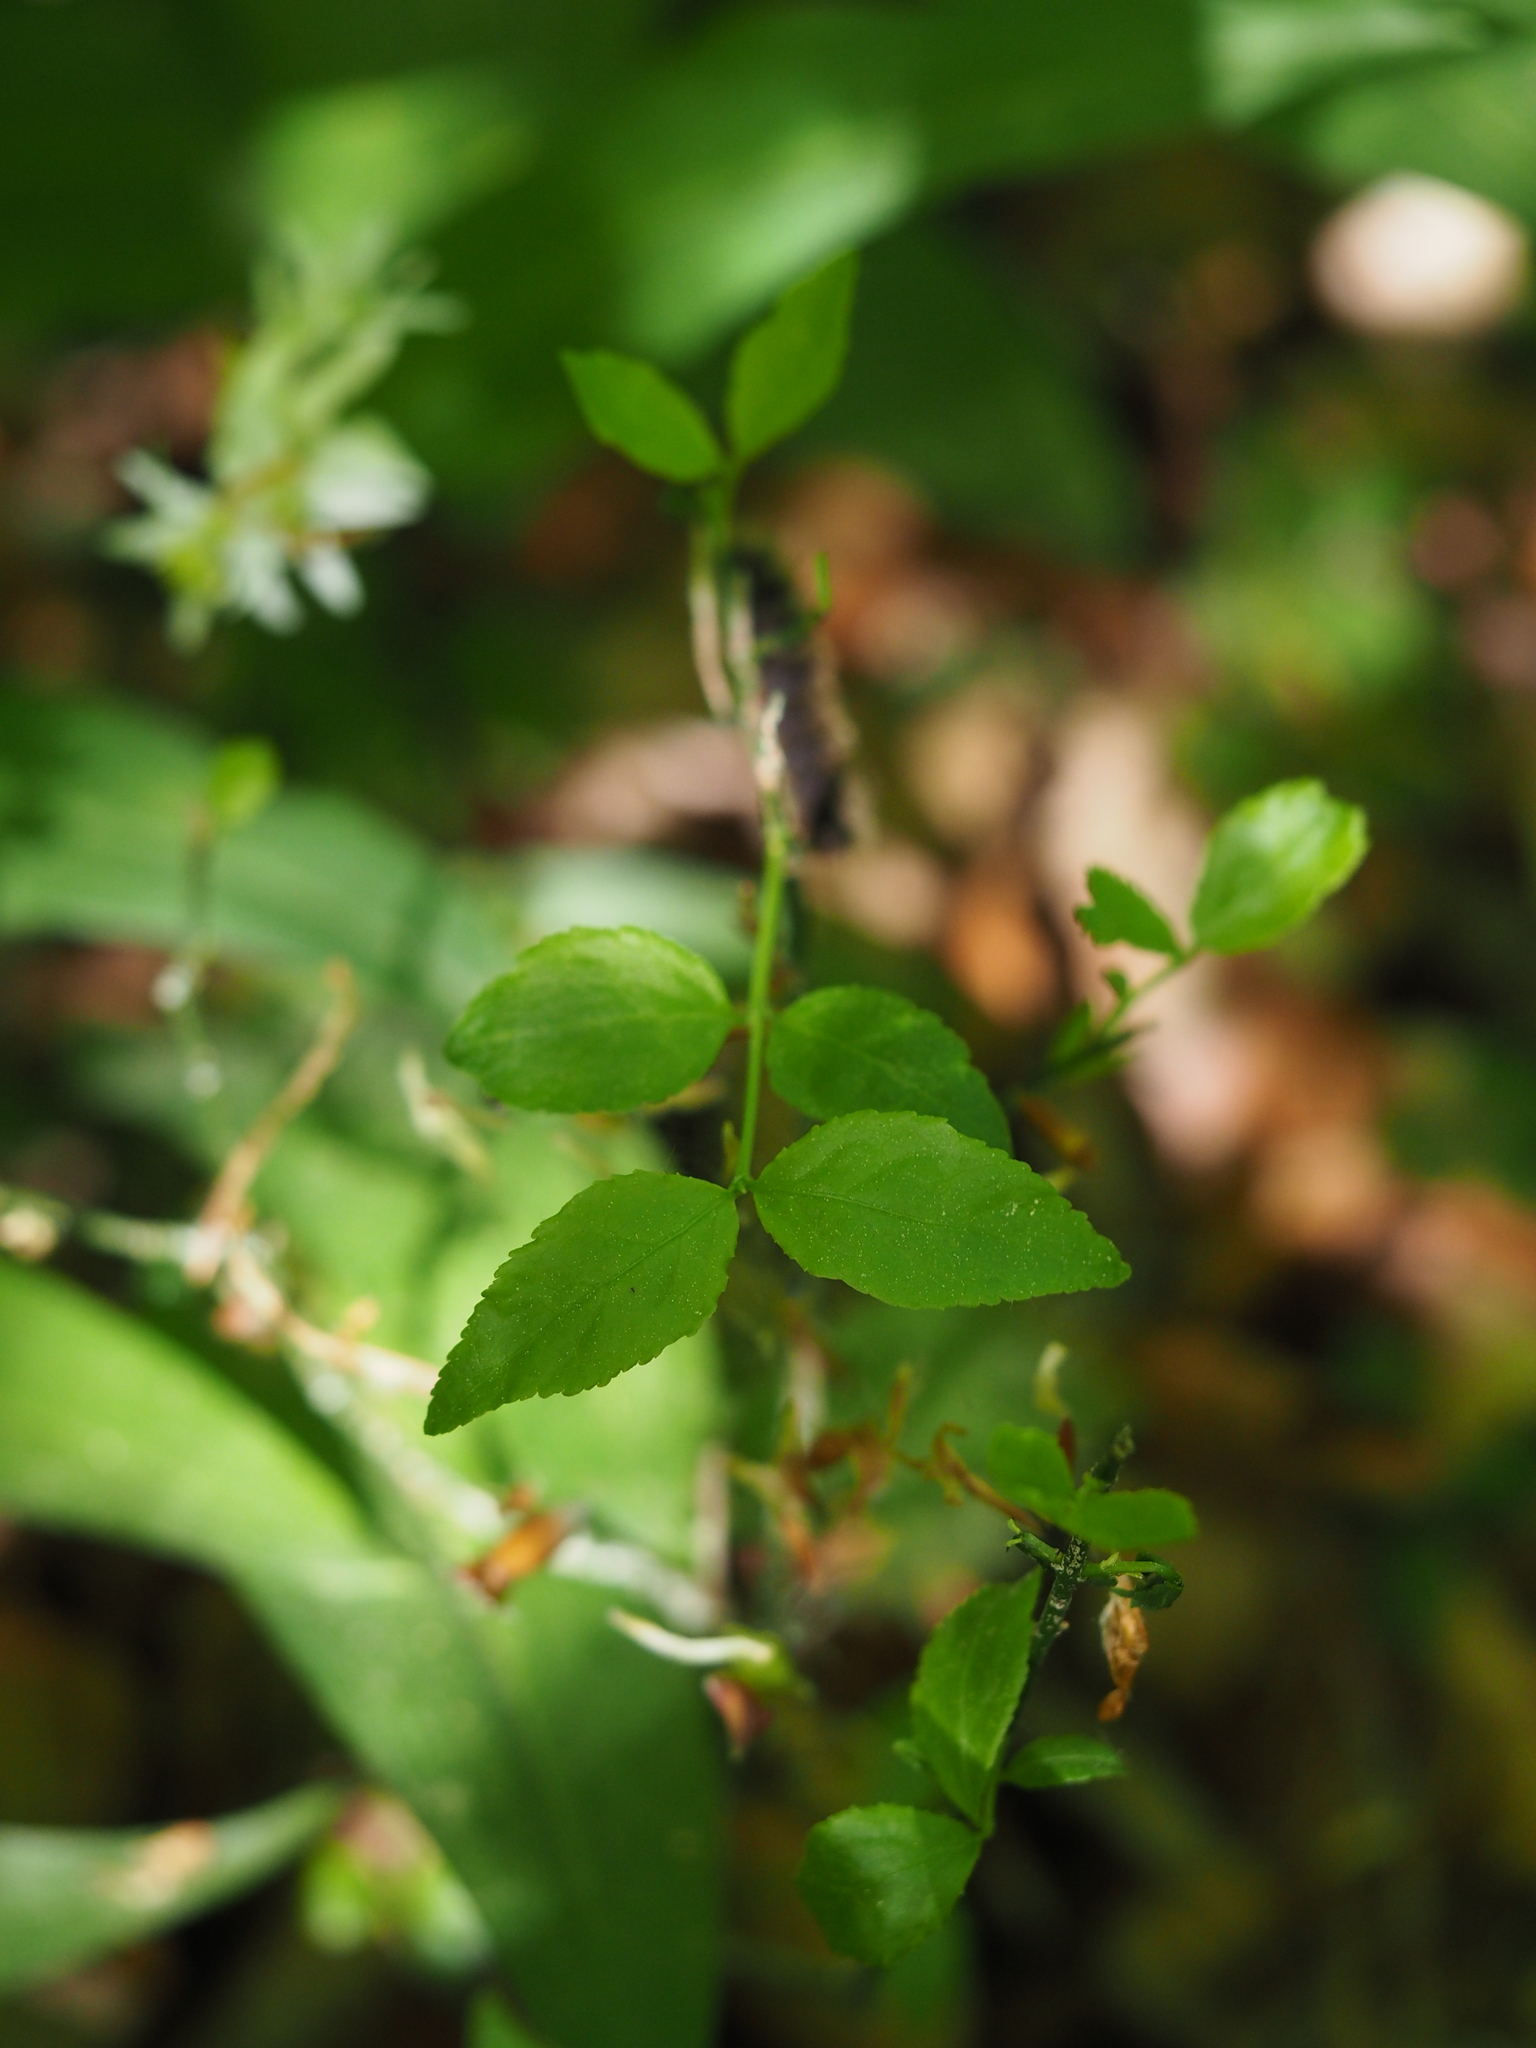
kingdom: Plantae
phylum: Tracheophyta
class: Magnoliopsida
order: Ericales
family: Ericaceae
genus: Vaccinium
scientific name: Vaccinium myrtillus
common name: Bilberry
